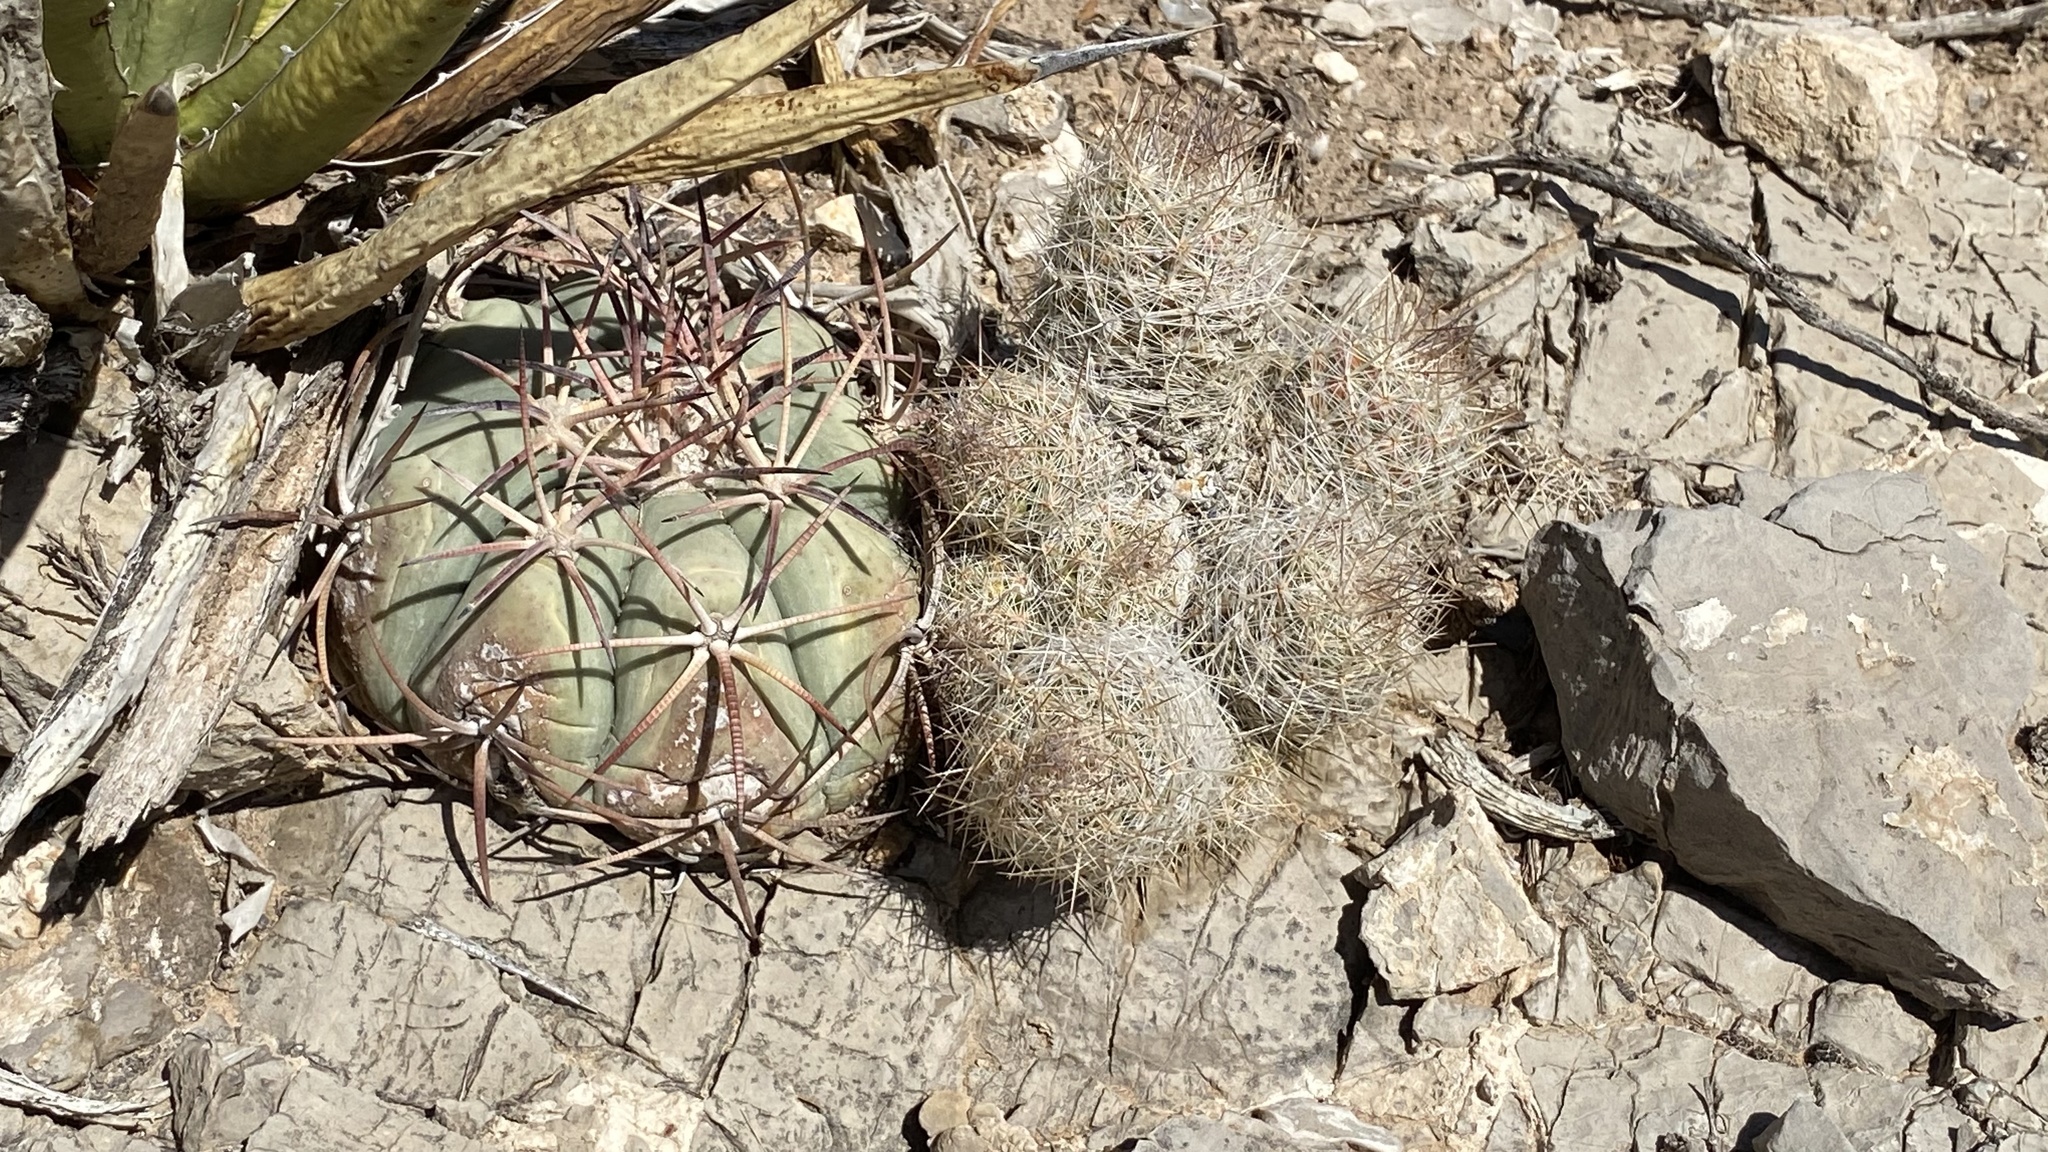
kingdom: Plantae
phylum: Tracheophyta
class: Magnoliopsida
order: Caryophyllales
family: Cactaceae
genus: Echinocactus
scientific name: Echinocactus horizonthalonius
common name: Devilshead
